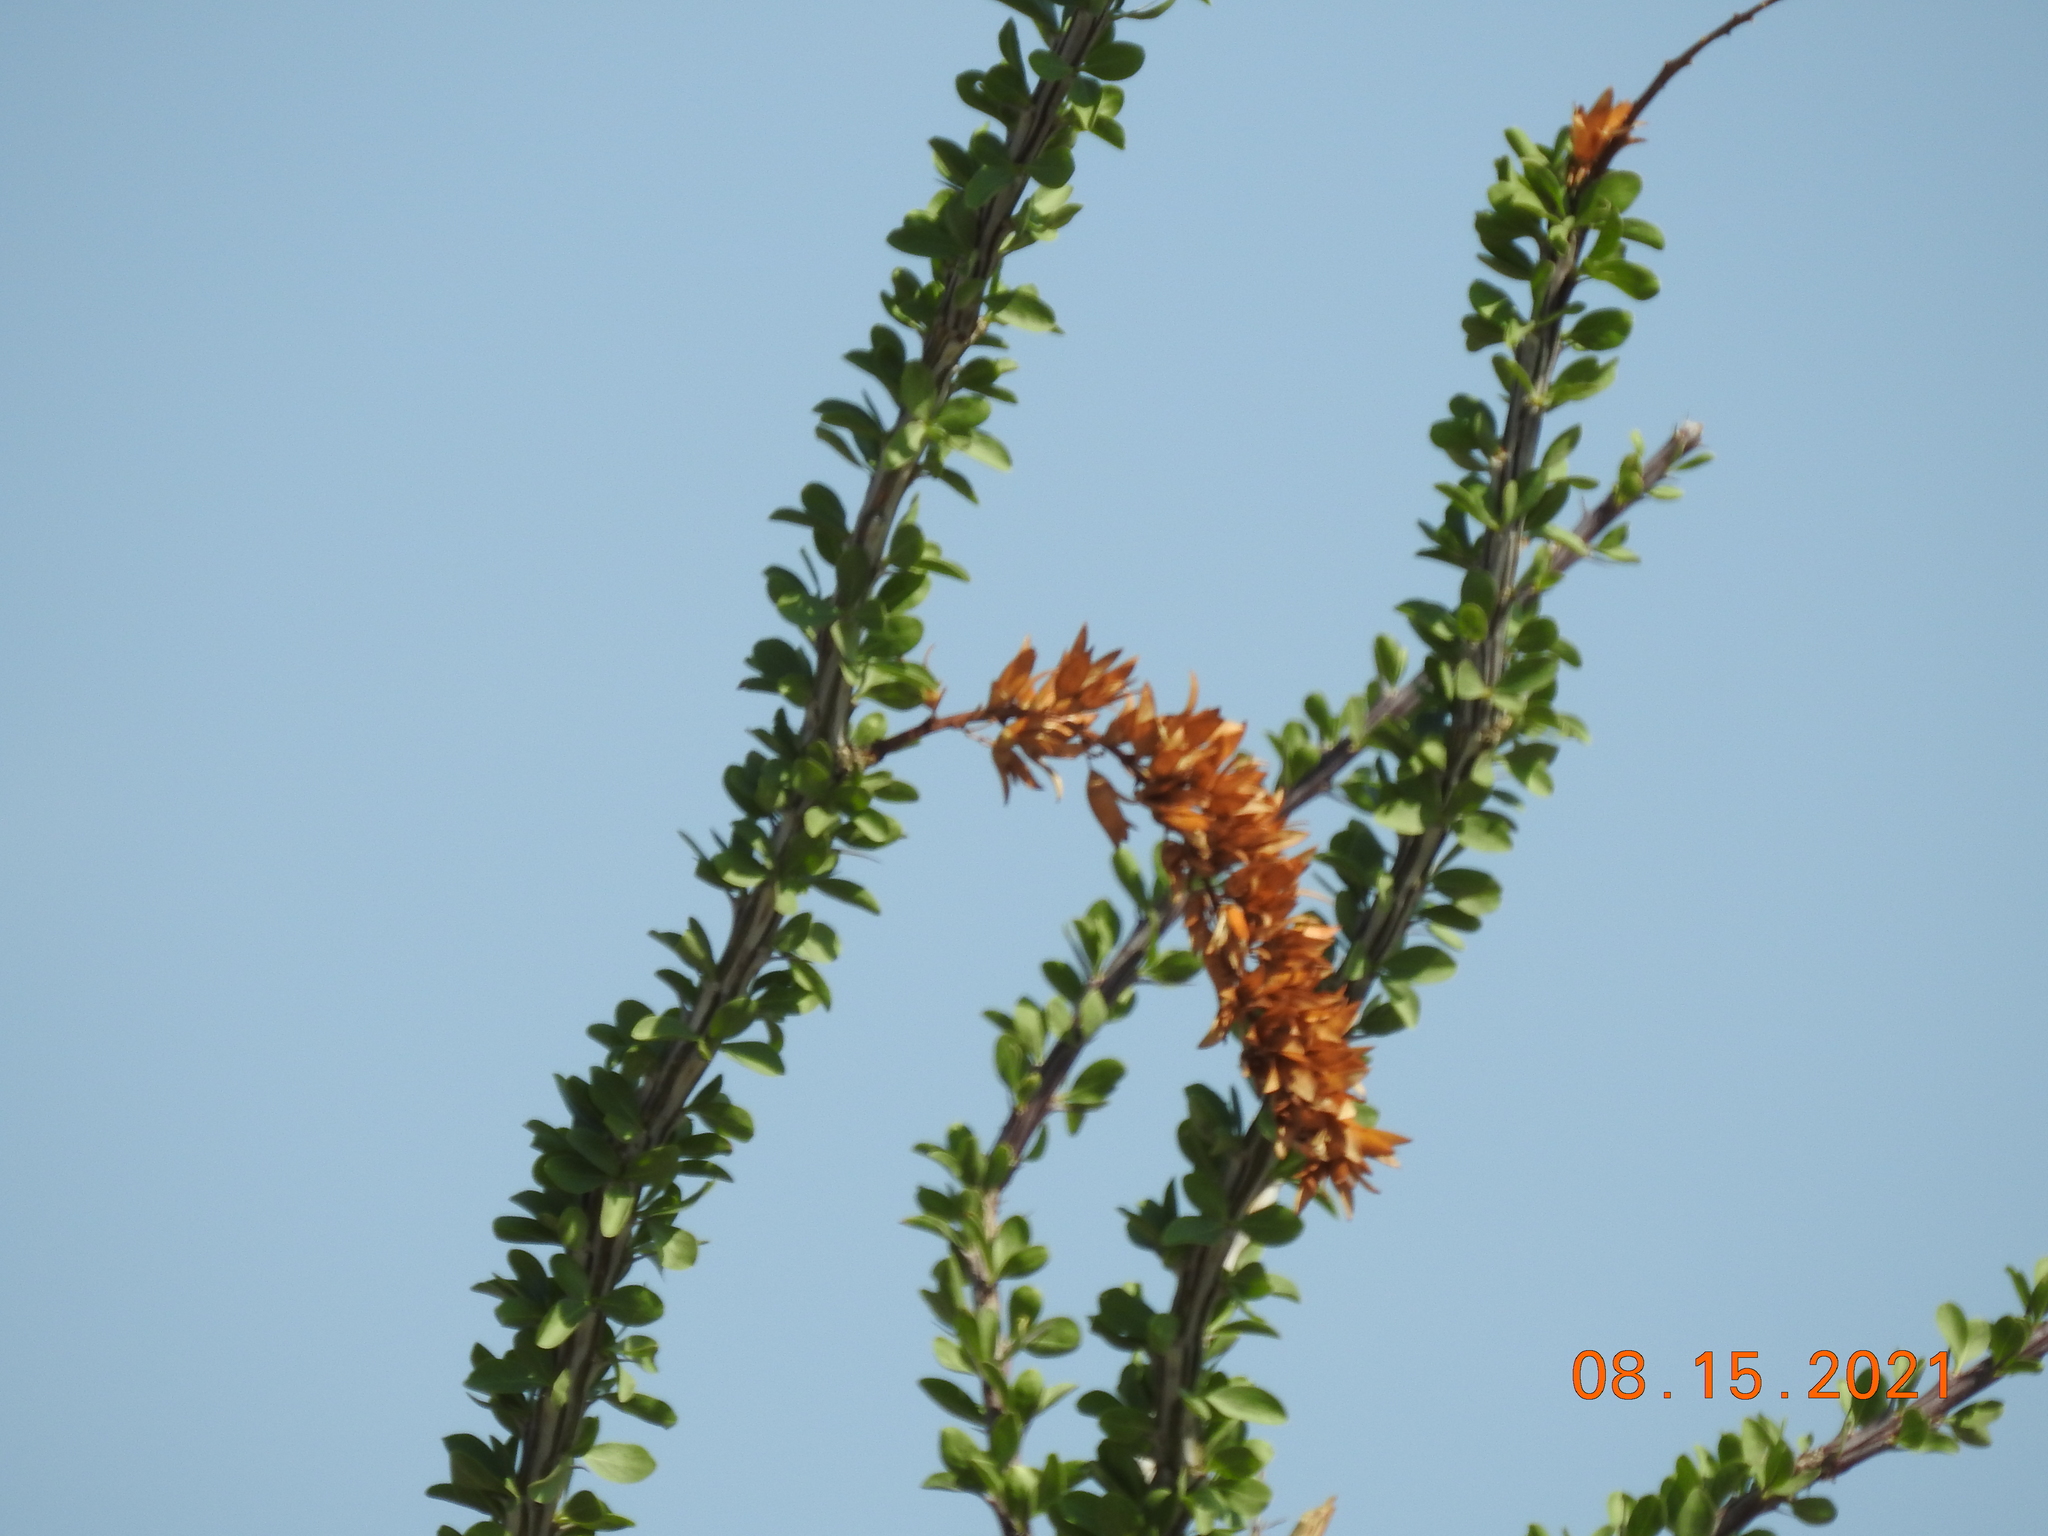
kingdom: Plantae
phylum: Tracheophyta
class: Magnoliopsida
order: Ericales
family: Fouquieriaceae
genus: Fouquieria
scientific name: Fouquieria splendens
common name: Vine-cactus
